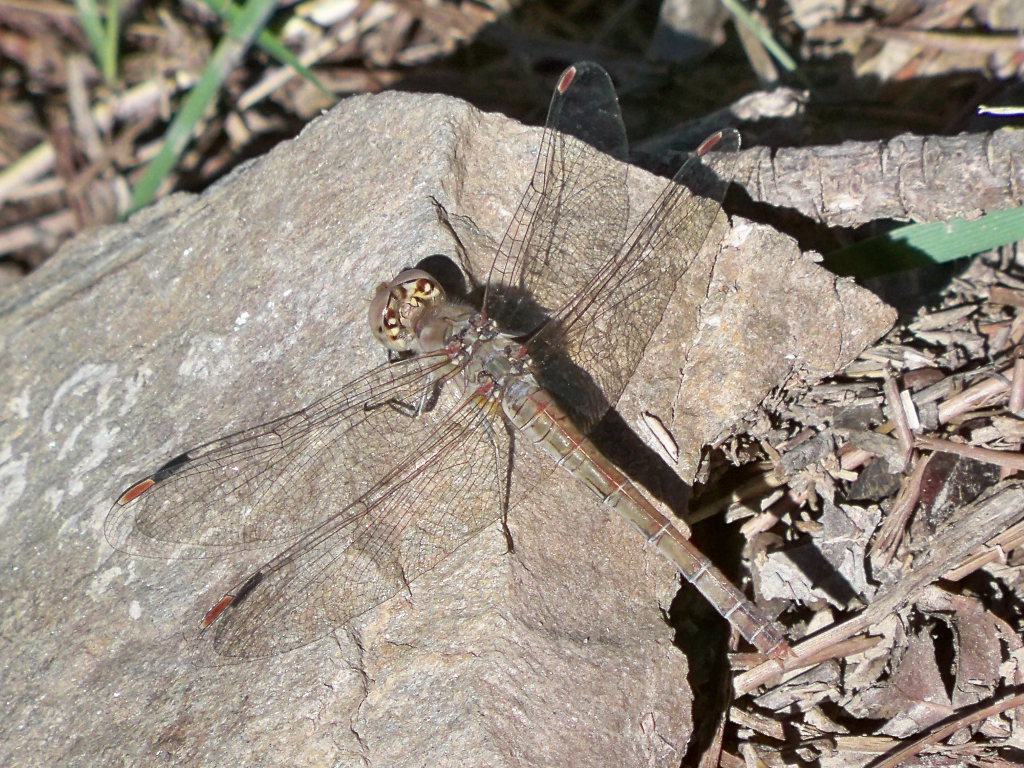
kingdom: Animalia
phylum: Arthropoda
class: Insecta
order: Odonata
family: Libellulidae
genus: Sympetrum
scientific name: Sympetrum striolatum
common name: Common darter
